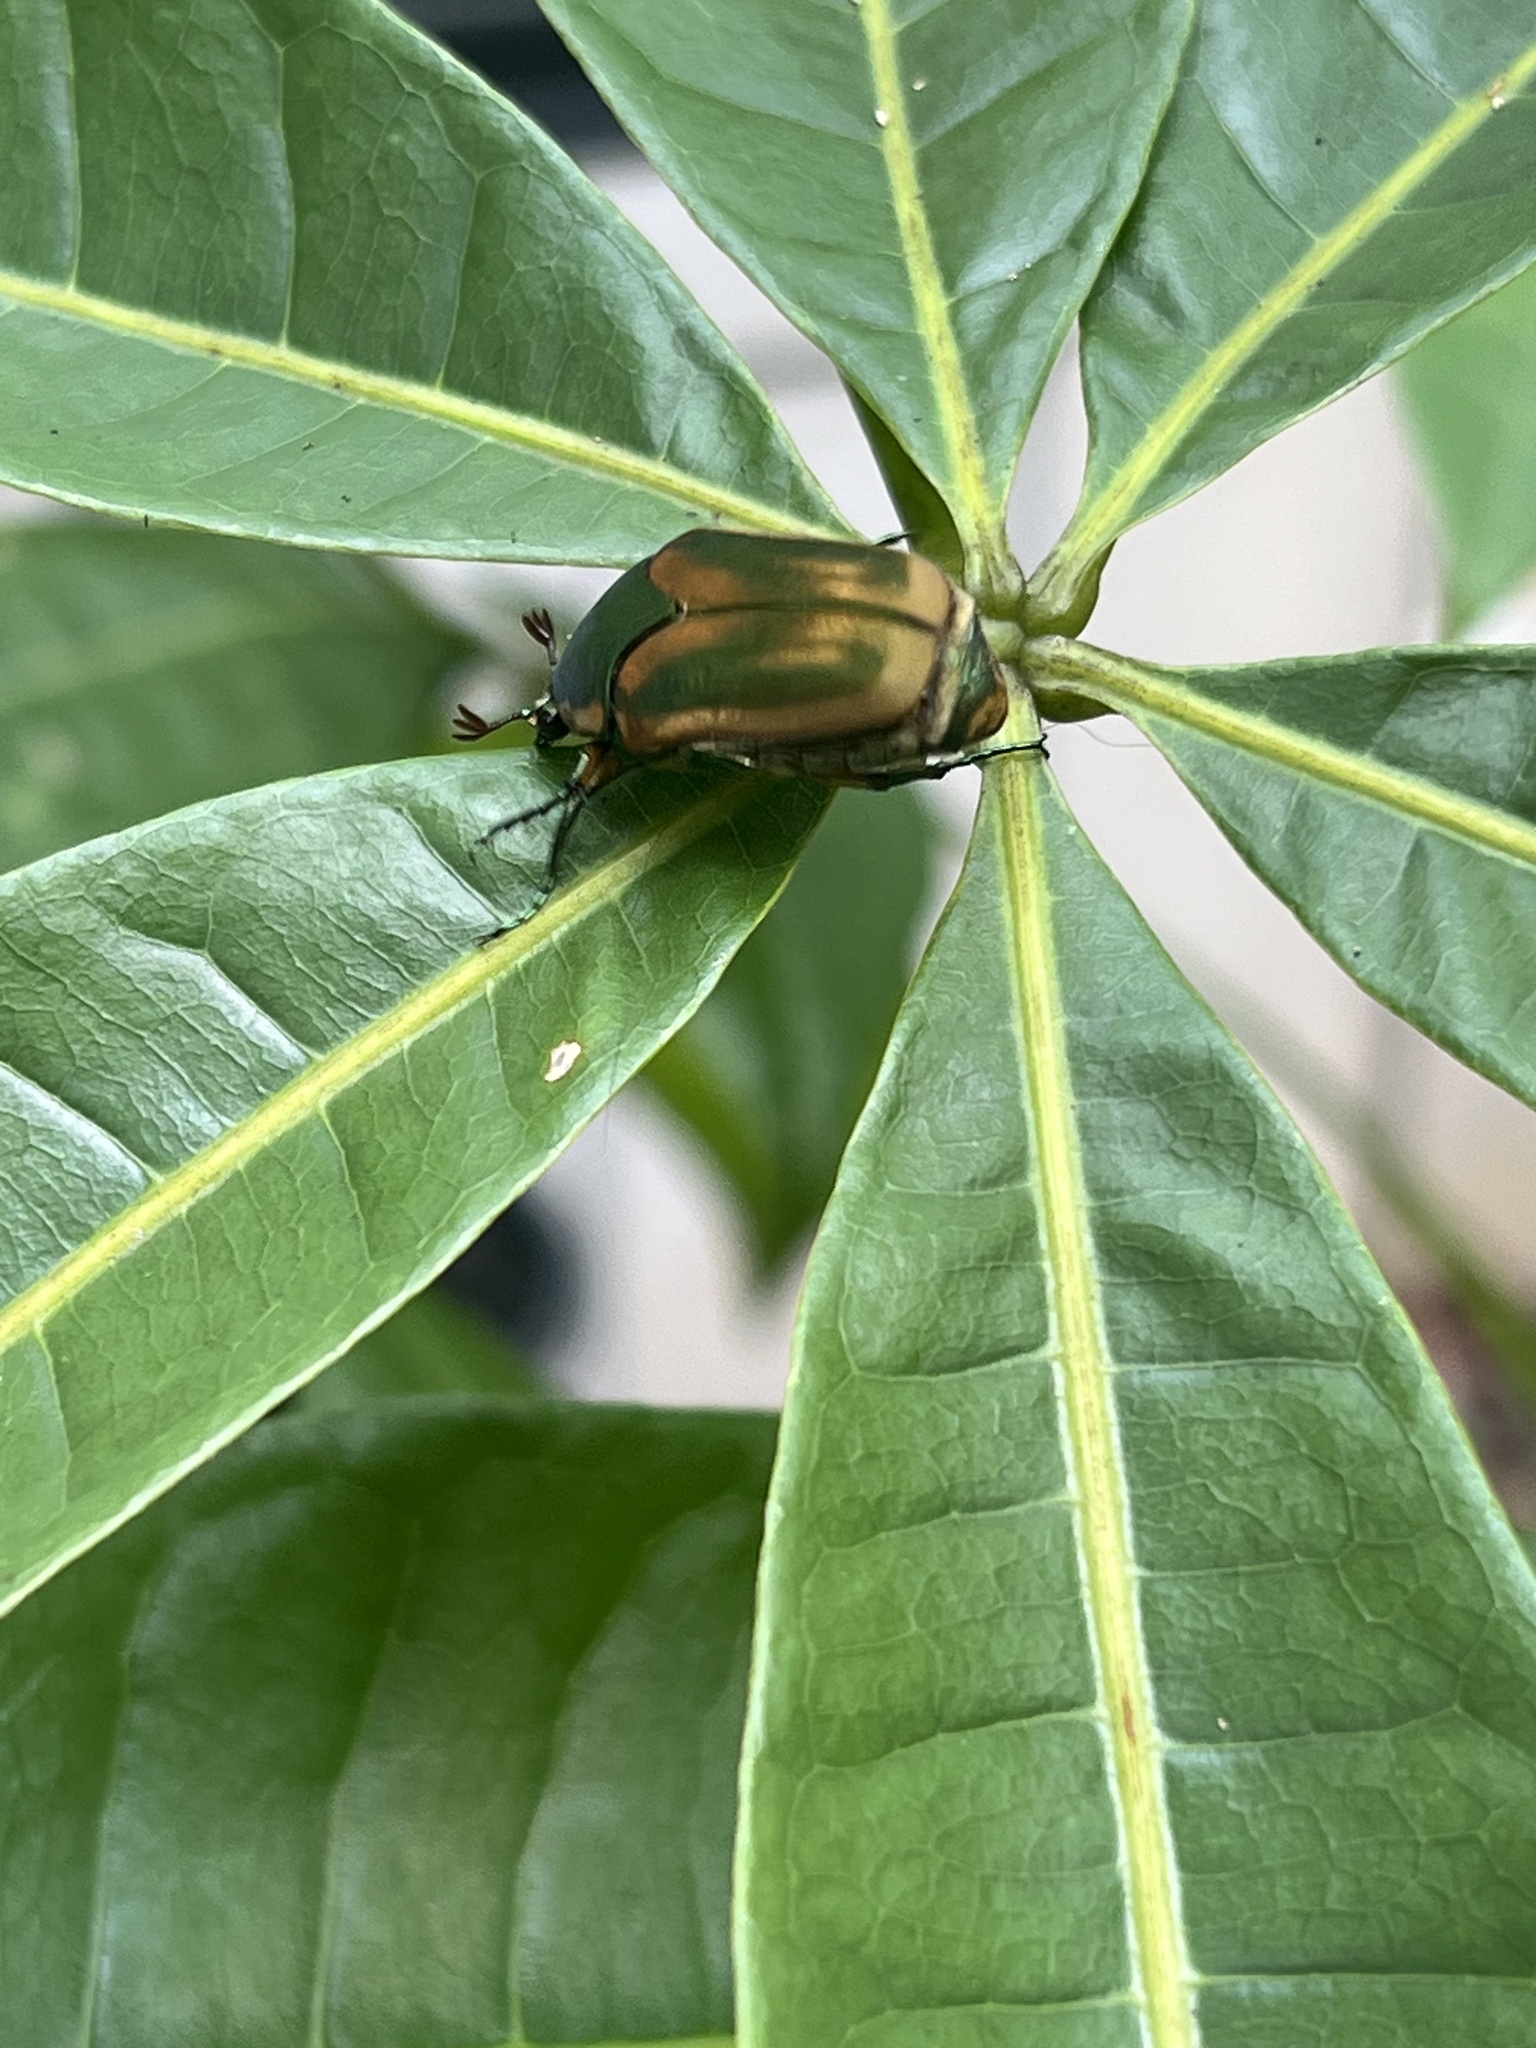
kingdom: Animalia
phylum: Arthropoda
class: Insecta
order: Coleoptera
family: Scarabaeidae
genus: Cotinis
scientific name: Cotinis nitida
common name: Common green june beetle
